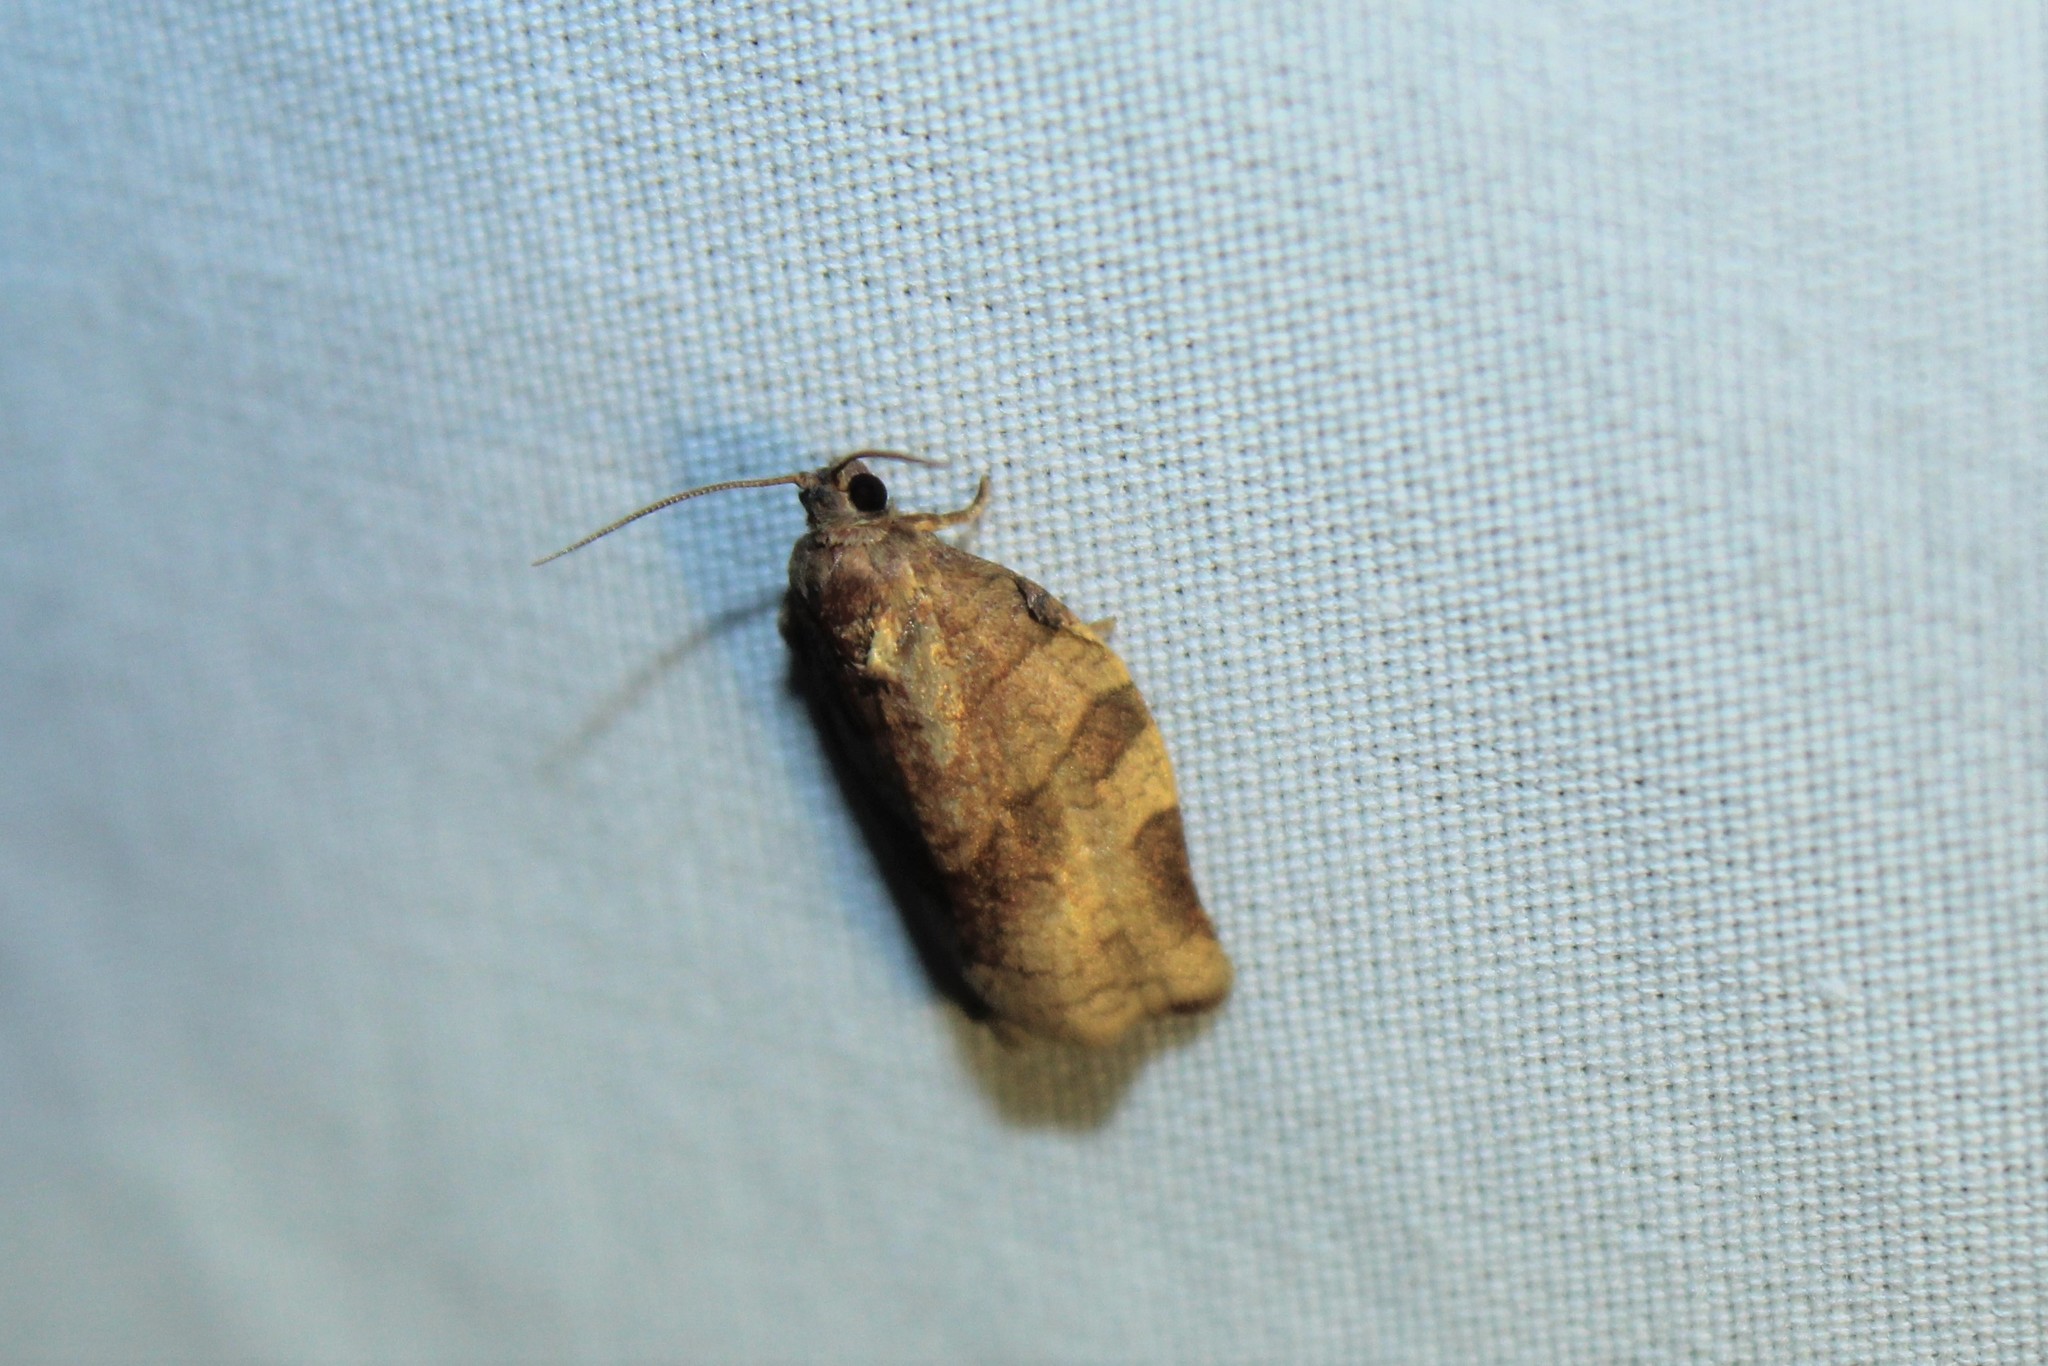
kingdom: Animalia
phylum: Arthropoda
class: Insecta
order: Lepidoptera
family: Tortricidae
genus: Choristoneura
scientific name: Choristoneura rosaceana
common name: Oblique-banded leafroller moth
